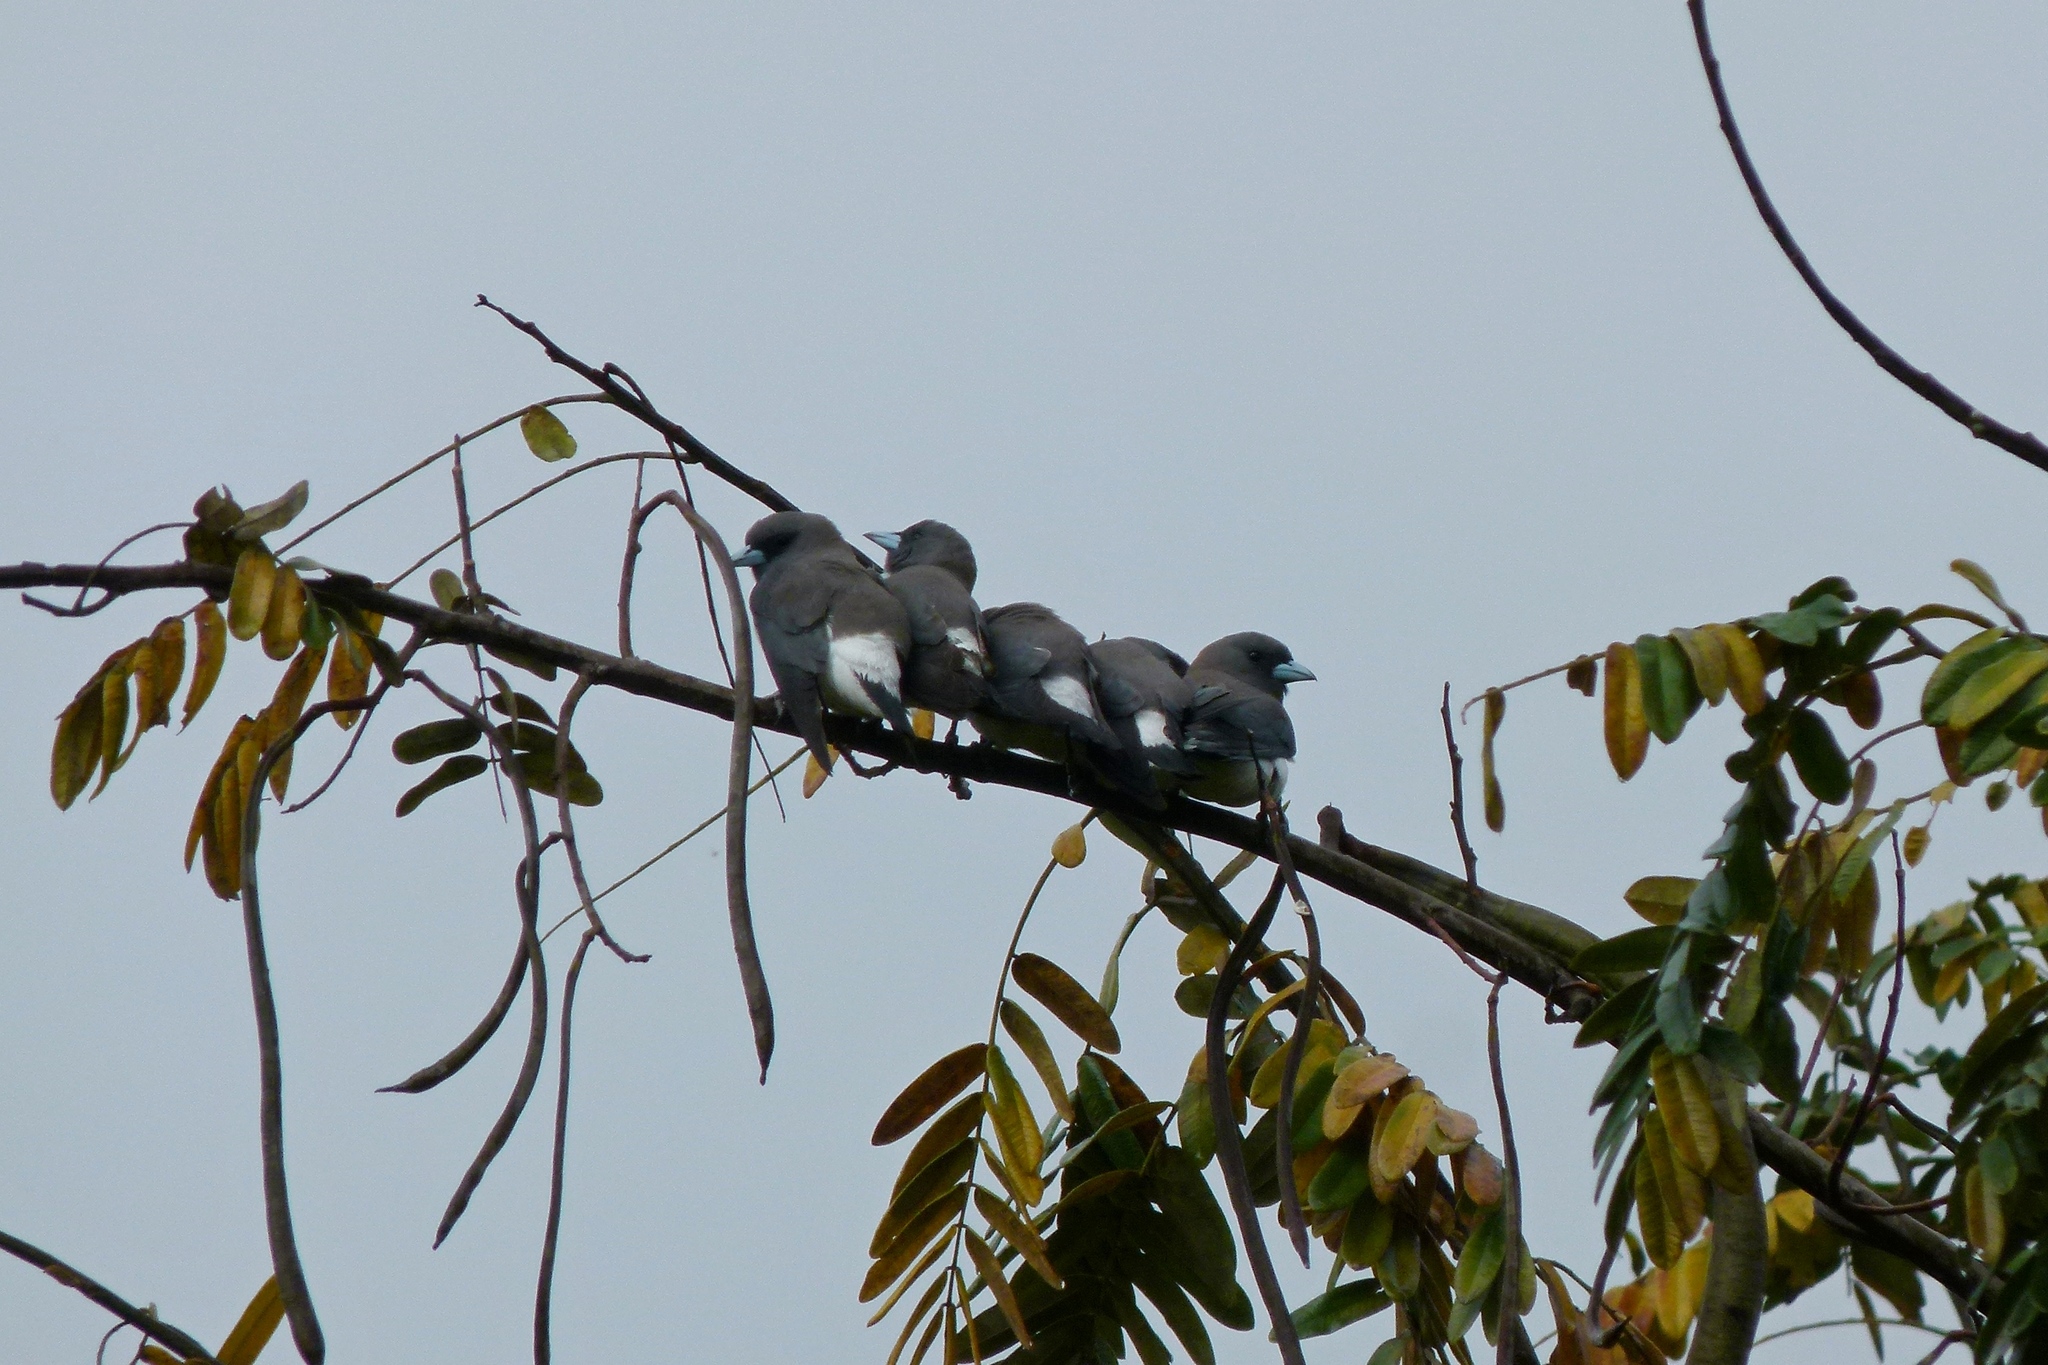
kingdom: Animalia
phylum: Chordata
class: Aves
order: Passeriformes
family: Artamidae
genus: Artamus
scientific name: Artamus leucoryn
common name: White-breasted woodswallow
